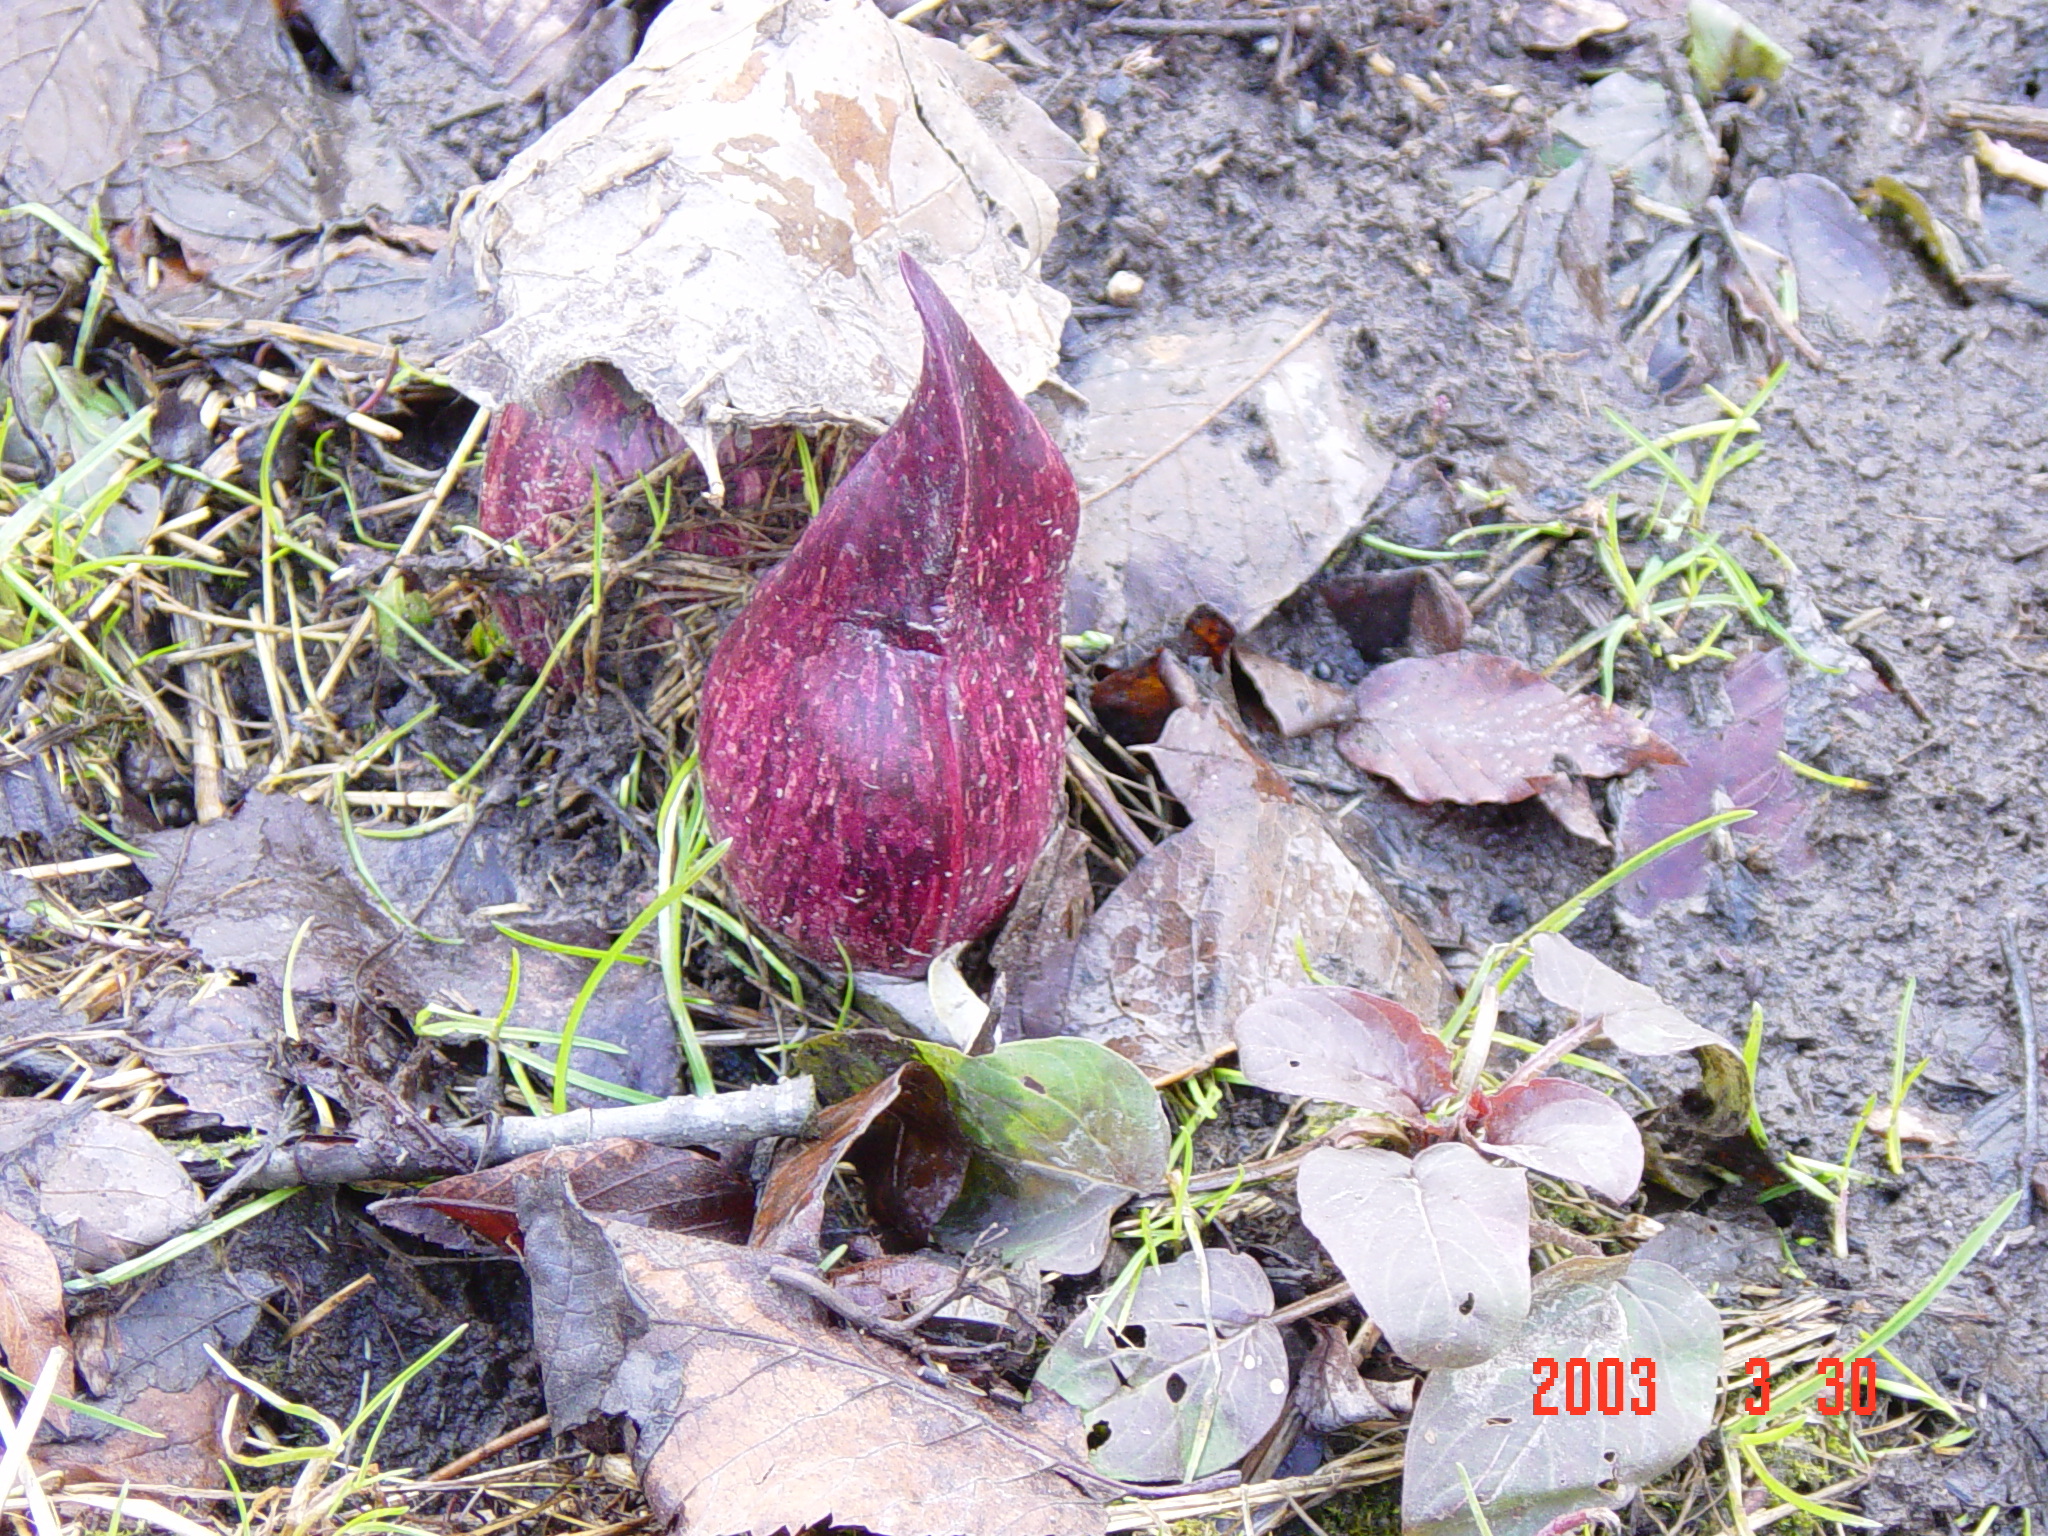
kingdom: Plantae
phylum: Tracheophyta
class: Liliopsida
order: Alismatales
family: Araceae
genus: Symplocarpus
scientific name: Symplocarpus foetidus
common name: Eastern skunk cabbage
